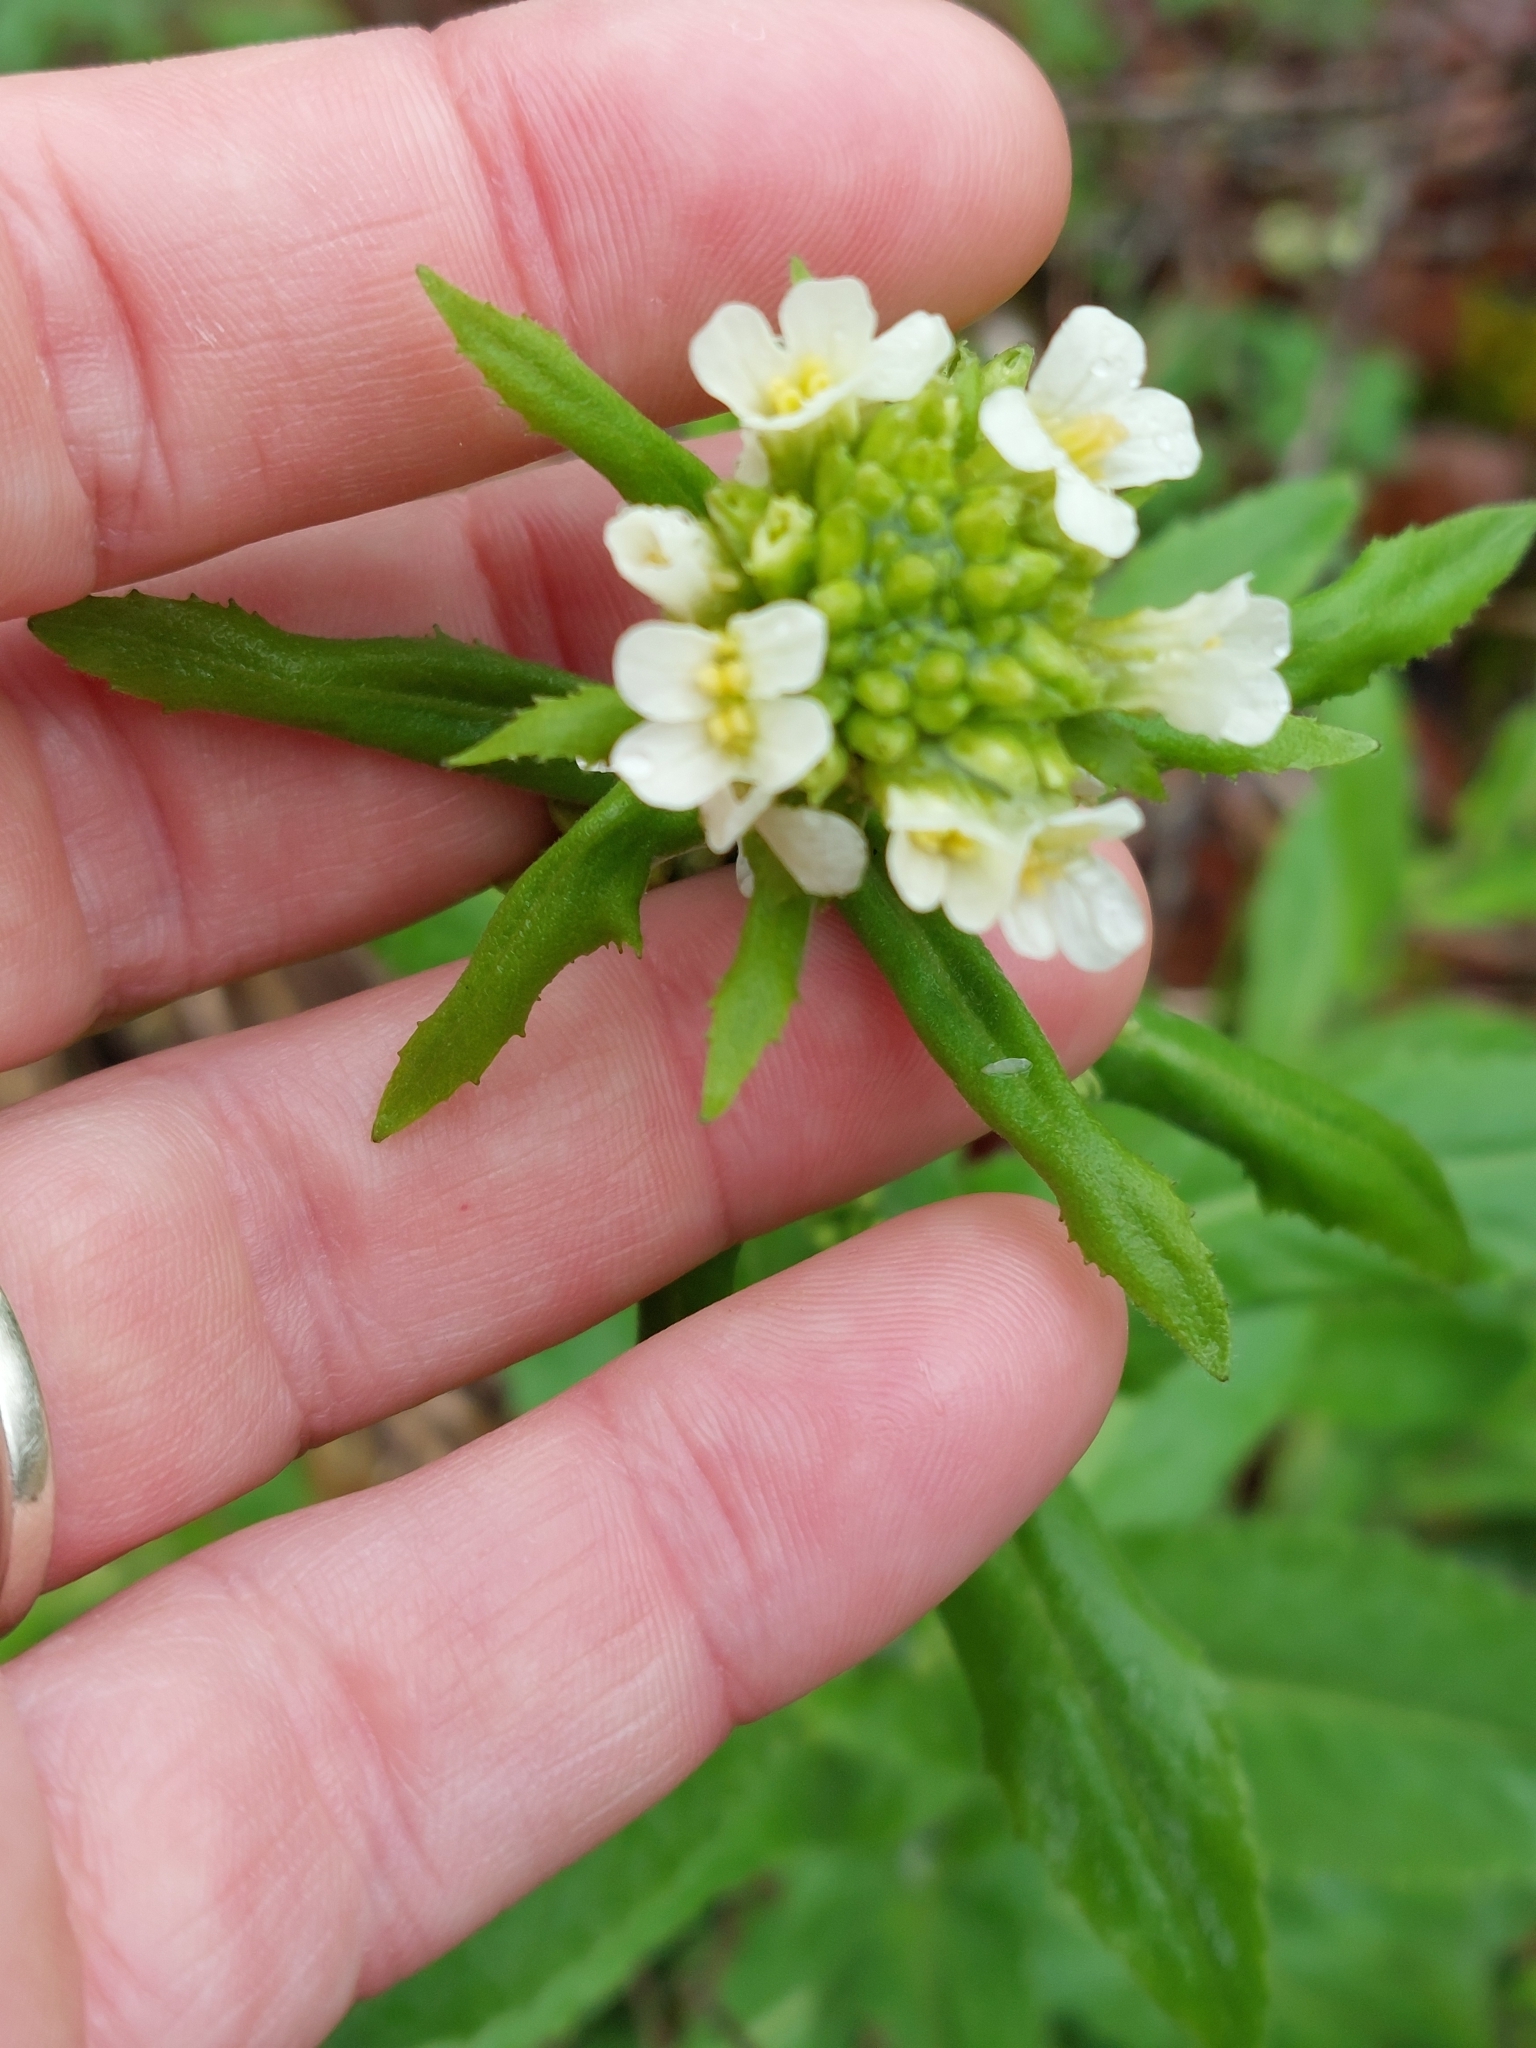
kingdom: Plantae
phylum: Tracheophyta
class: Magnoliopsida
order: Brassicales
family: Brassicaceae
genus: Pseudoturritis
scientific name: Pseudoturritis turrita
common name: Tower cress
